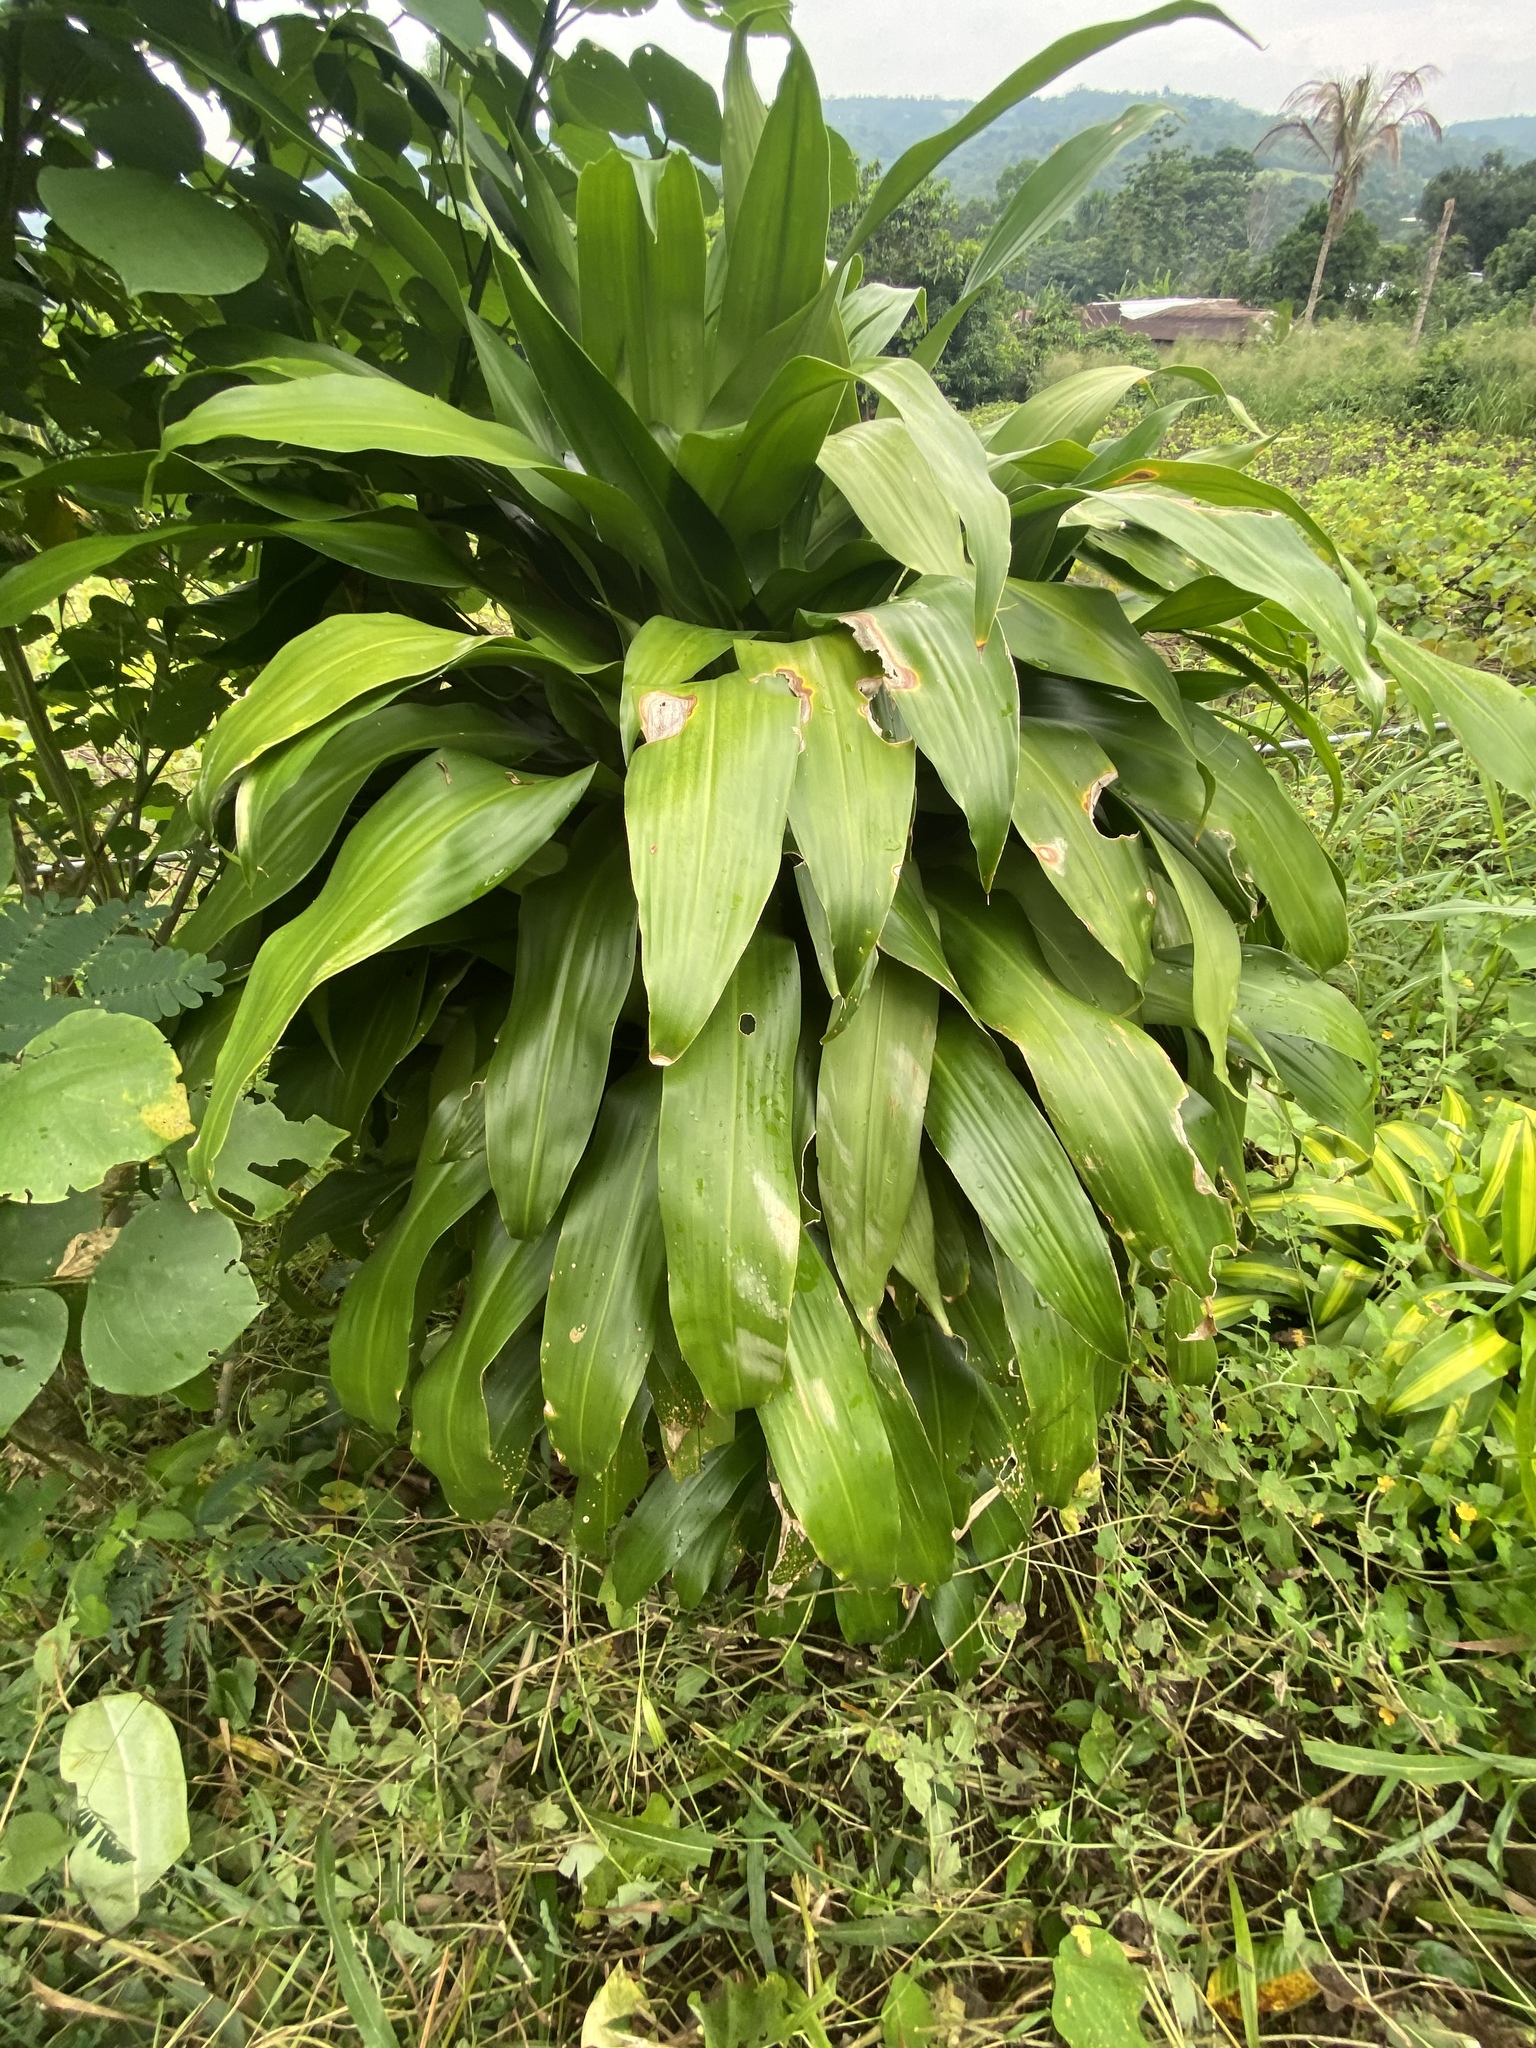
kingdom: Plantae
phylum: Tracheophyta
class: Liliopsida
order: Asparagales
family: Asparagaceae
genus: Dracaena
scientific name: Dracaena fragrans
